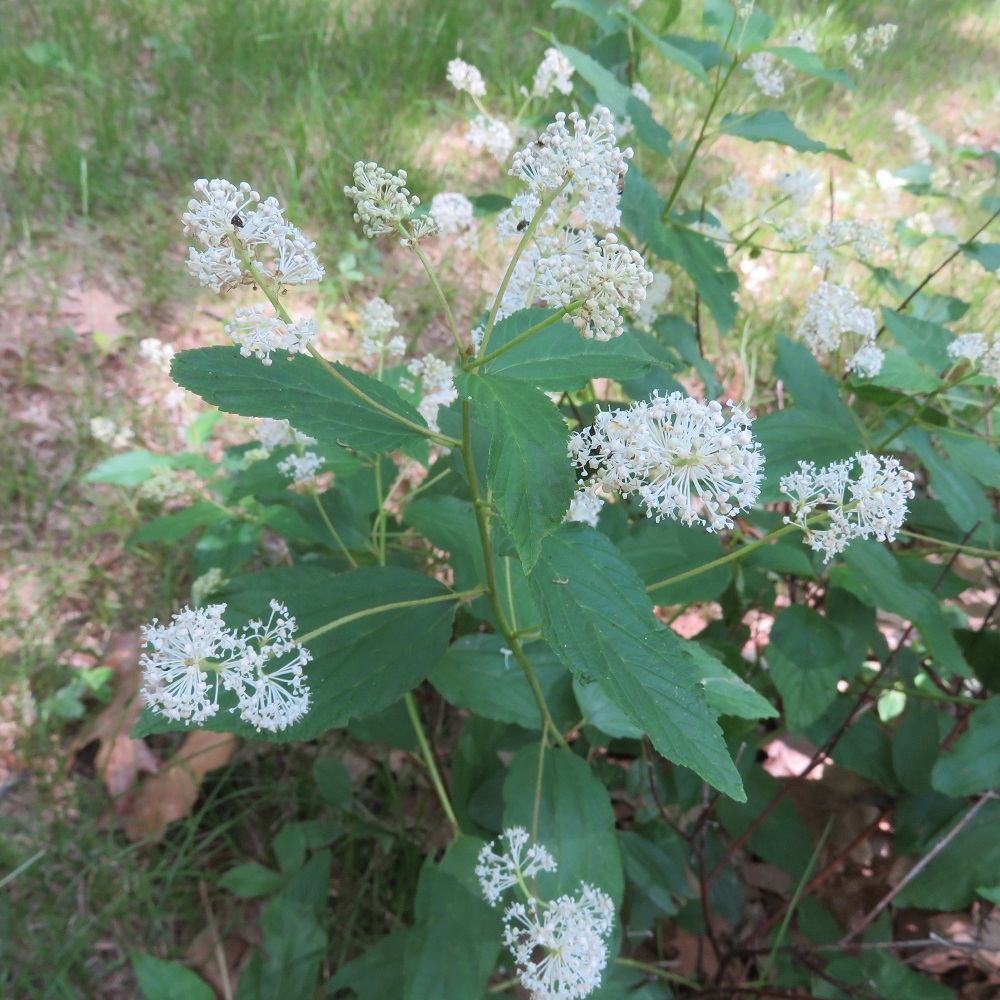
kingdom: Plantae
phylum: Tracheophyta
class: Magnoliopsida
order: Rosales
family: Rhamnaceae
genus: Ceanothus
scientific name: Ceanothus americanus
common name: Redroot
